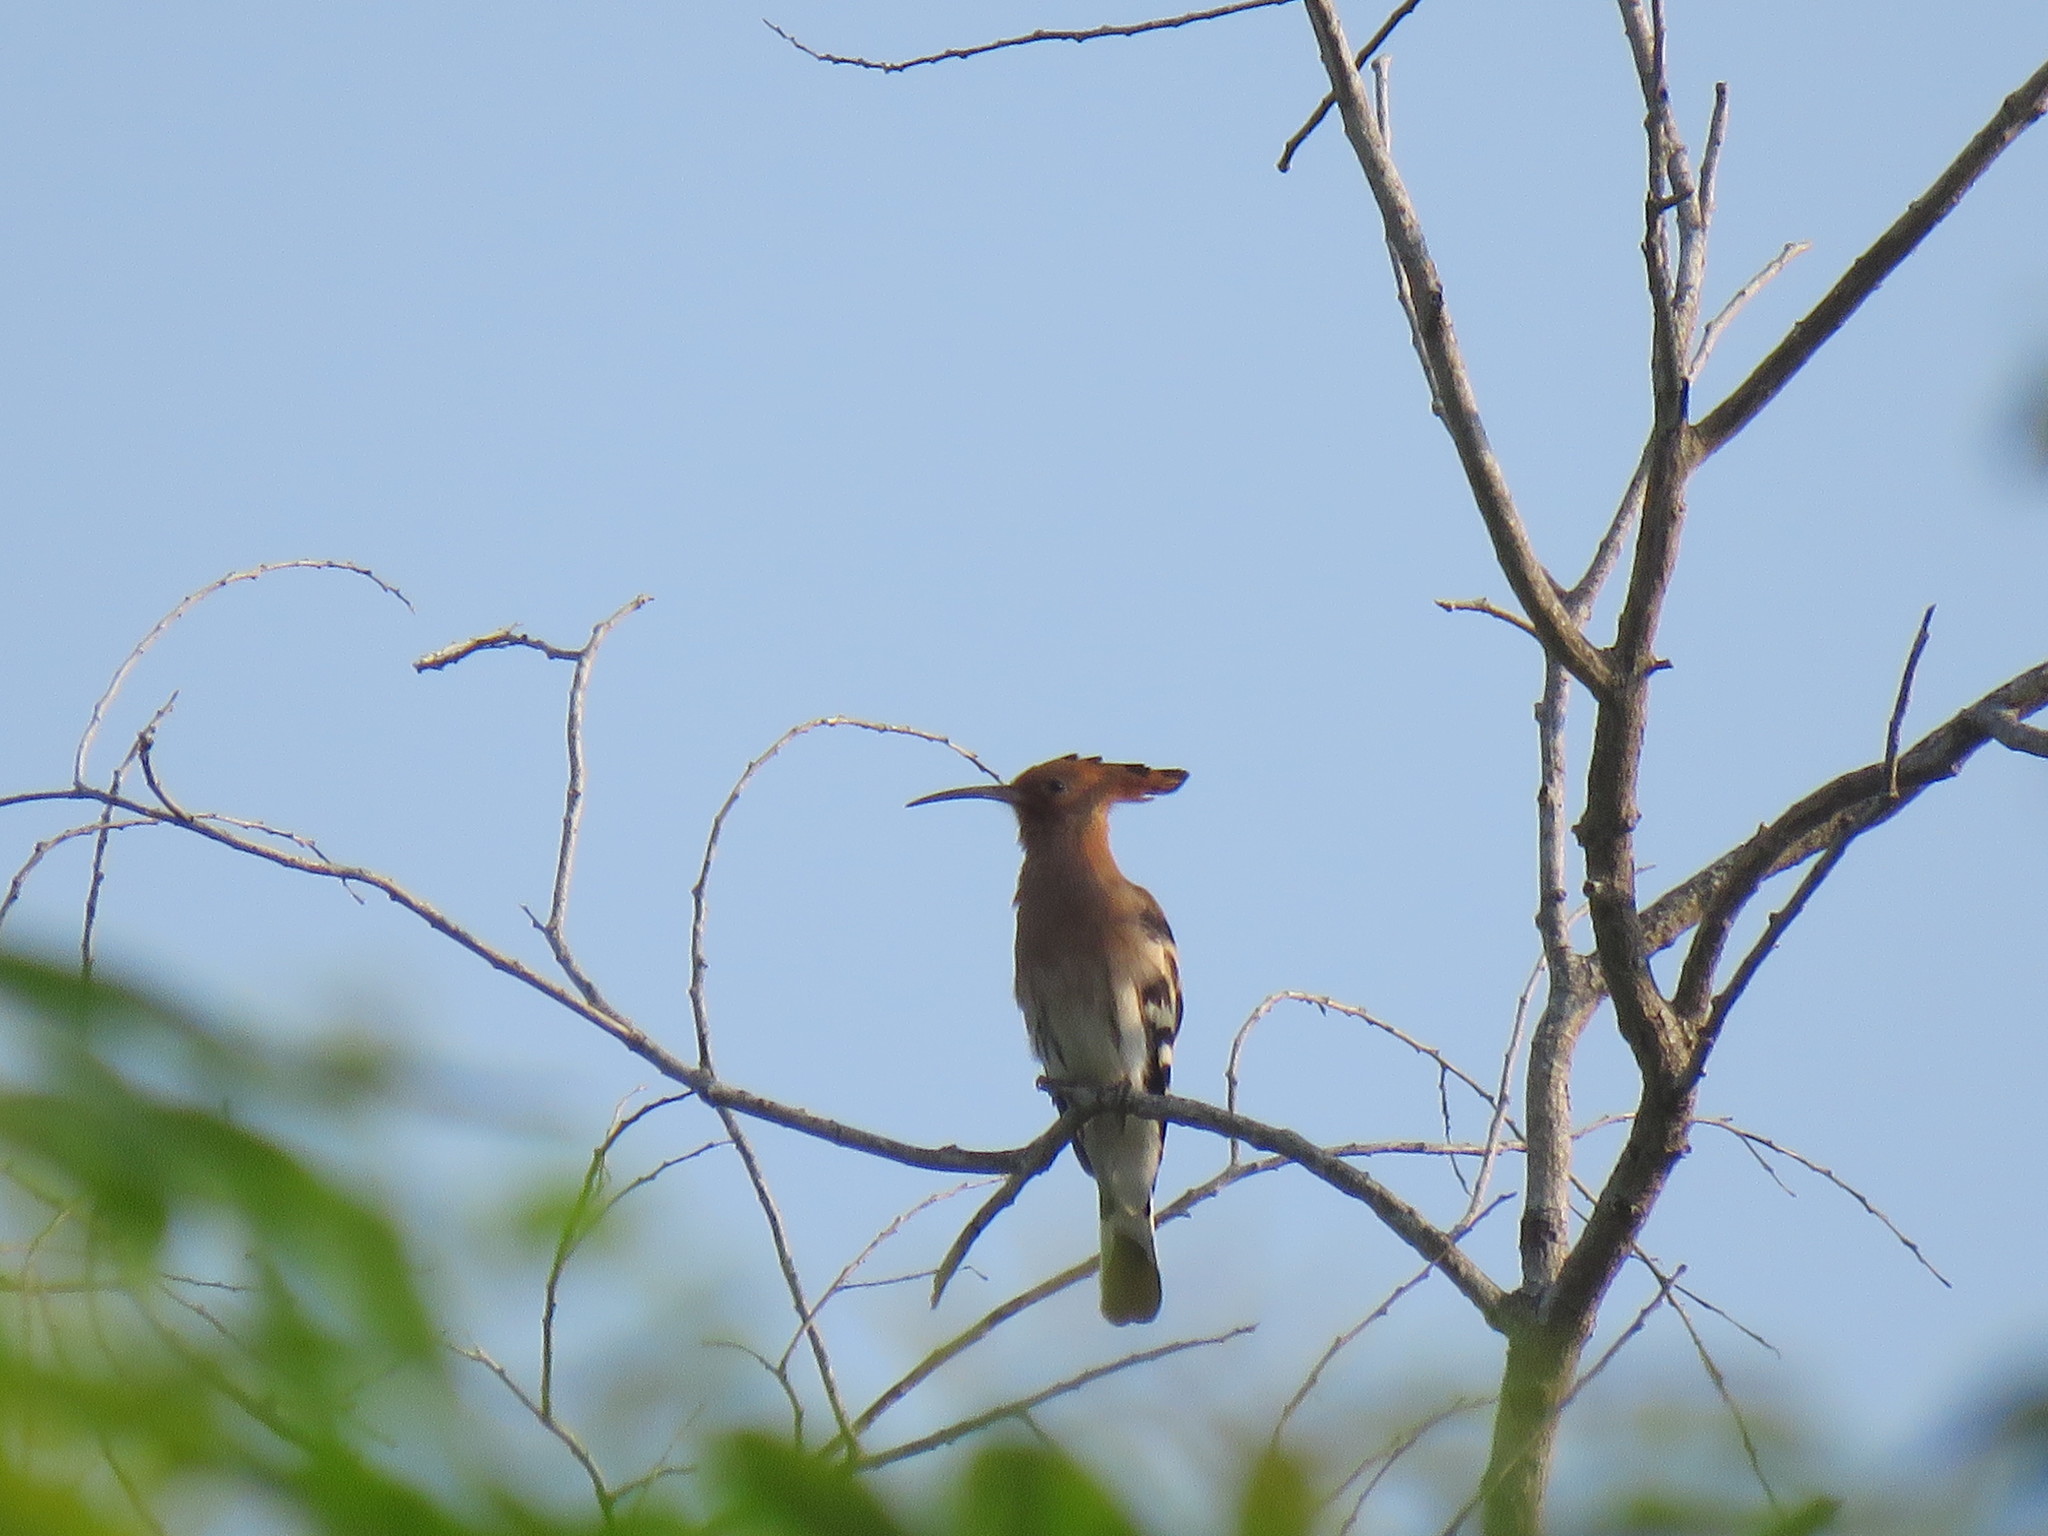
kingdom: Animalia
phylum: Chordata
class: Aves
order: Bucerotiformes
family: Upupidae
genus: Upupa
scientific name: Upupa epops
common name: Eurasian hoopoe
